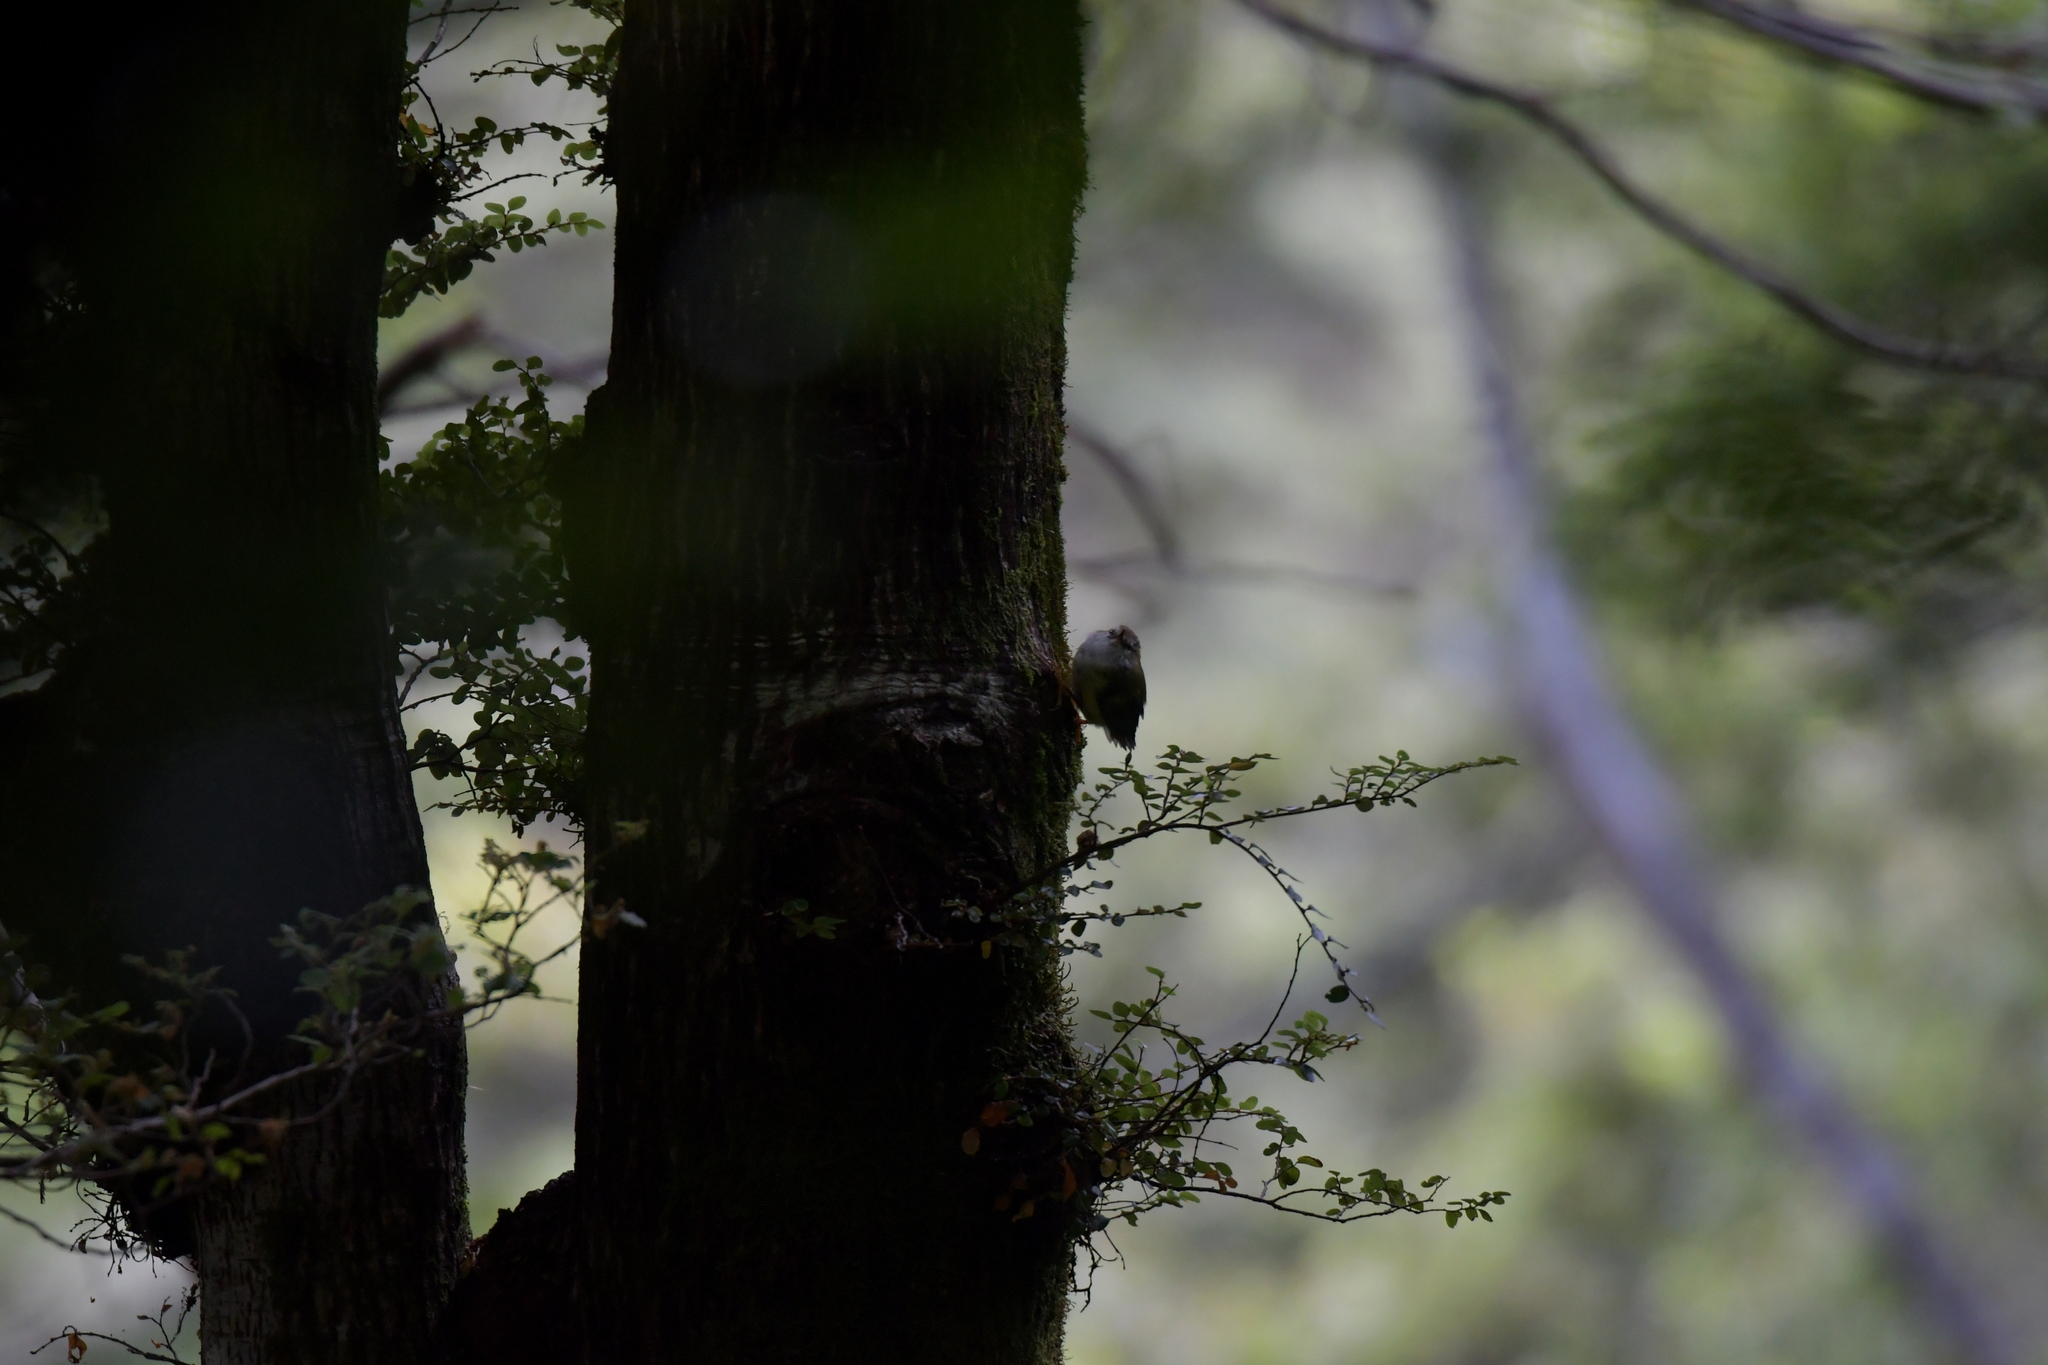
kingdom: Animalia
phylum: Chordata
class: Aves
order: Passeriformes
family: Acanthisittidae
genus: Acanthisitta
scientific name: Acanthisitta chloris
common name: Rifleman
